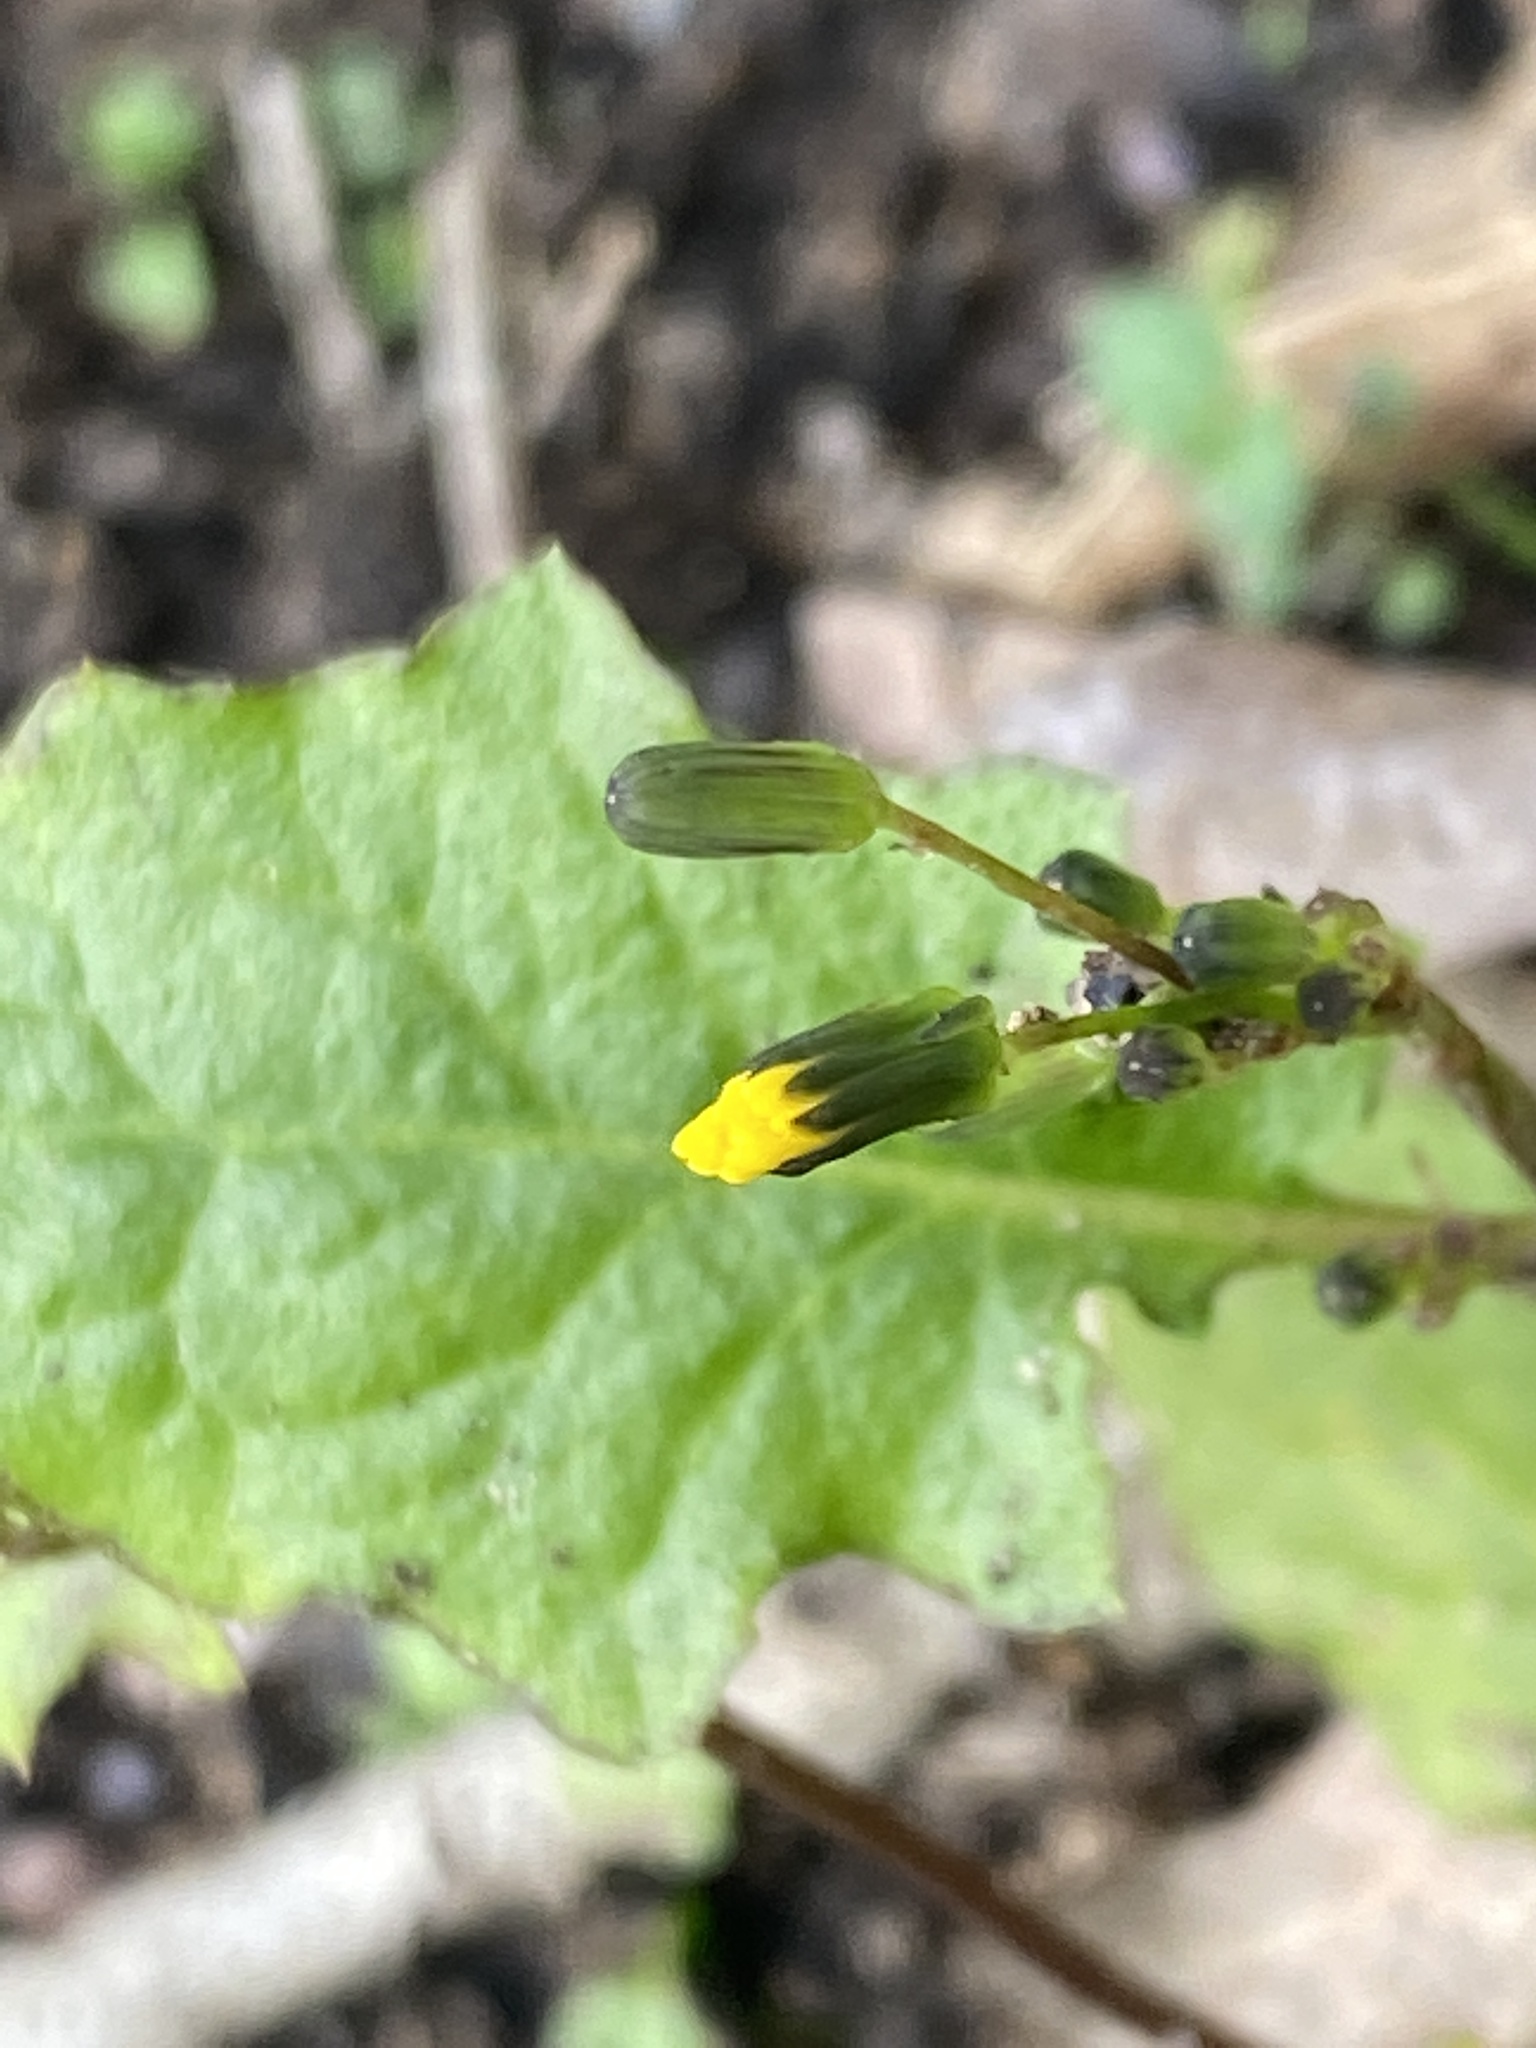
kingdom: Plantae
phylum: Tracheophyta
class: Magnoliopsida
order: Asterales
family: Asteraceae
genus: Youngia
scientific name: Youngia japonica
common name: Oriental false hawksbeard
